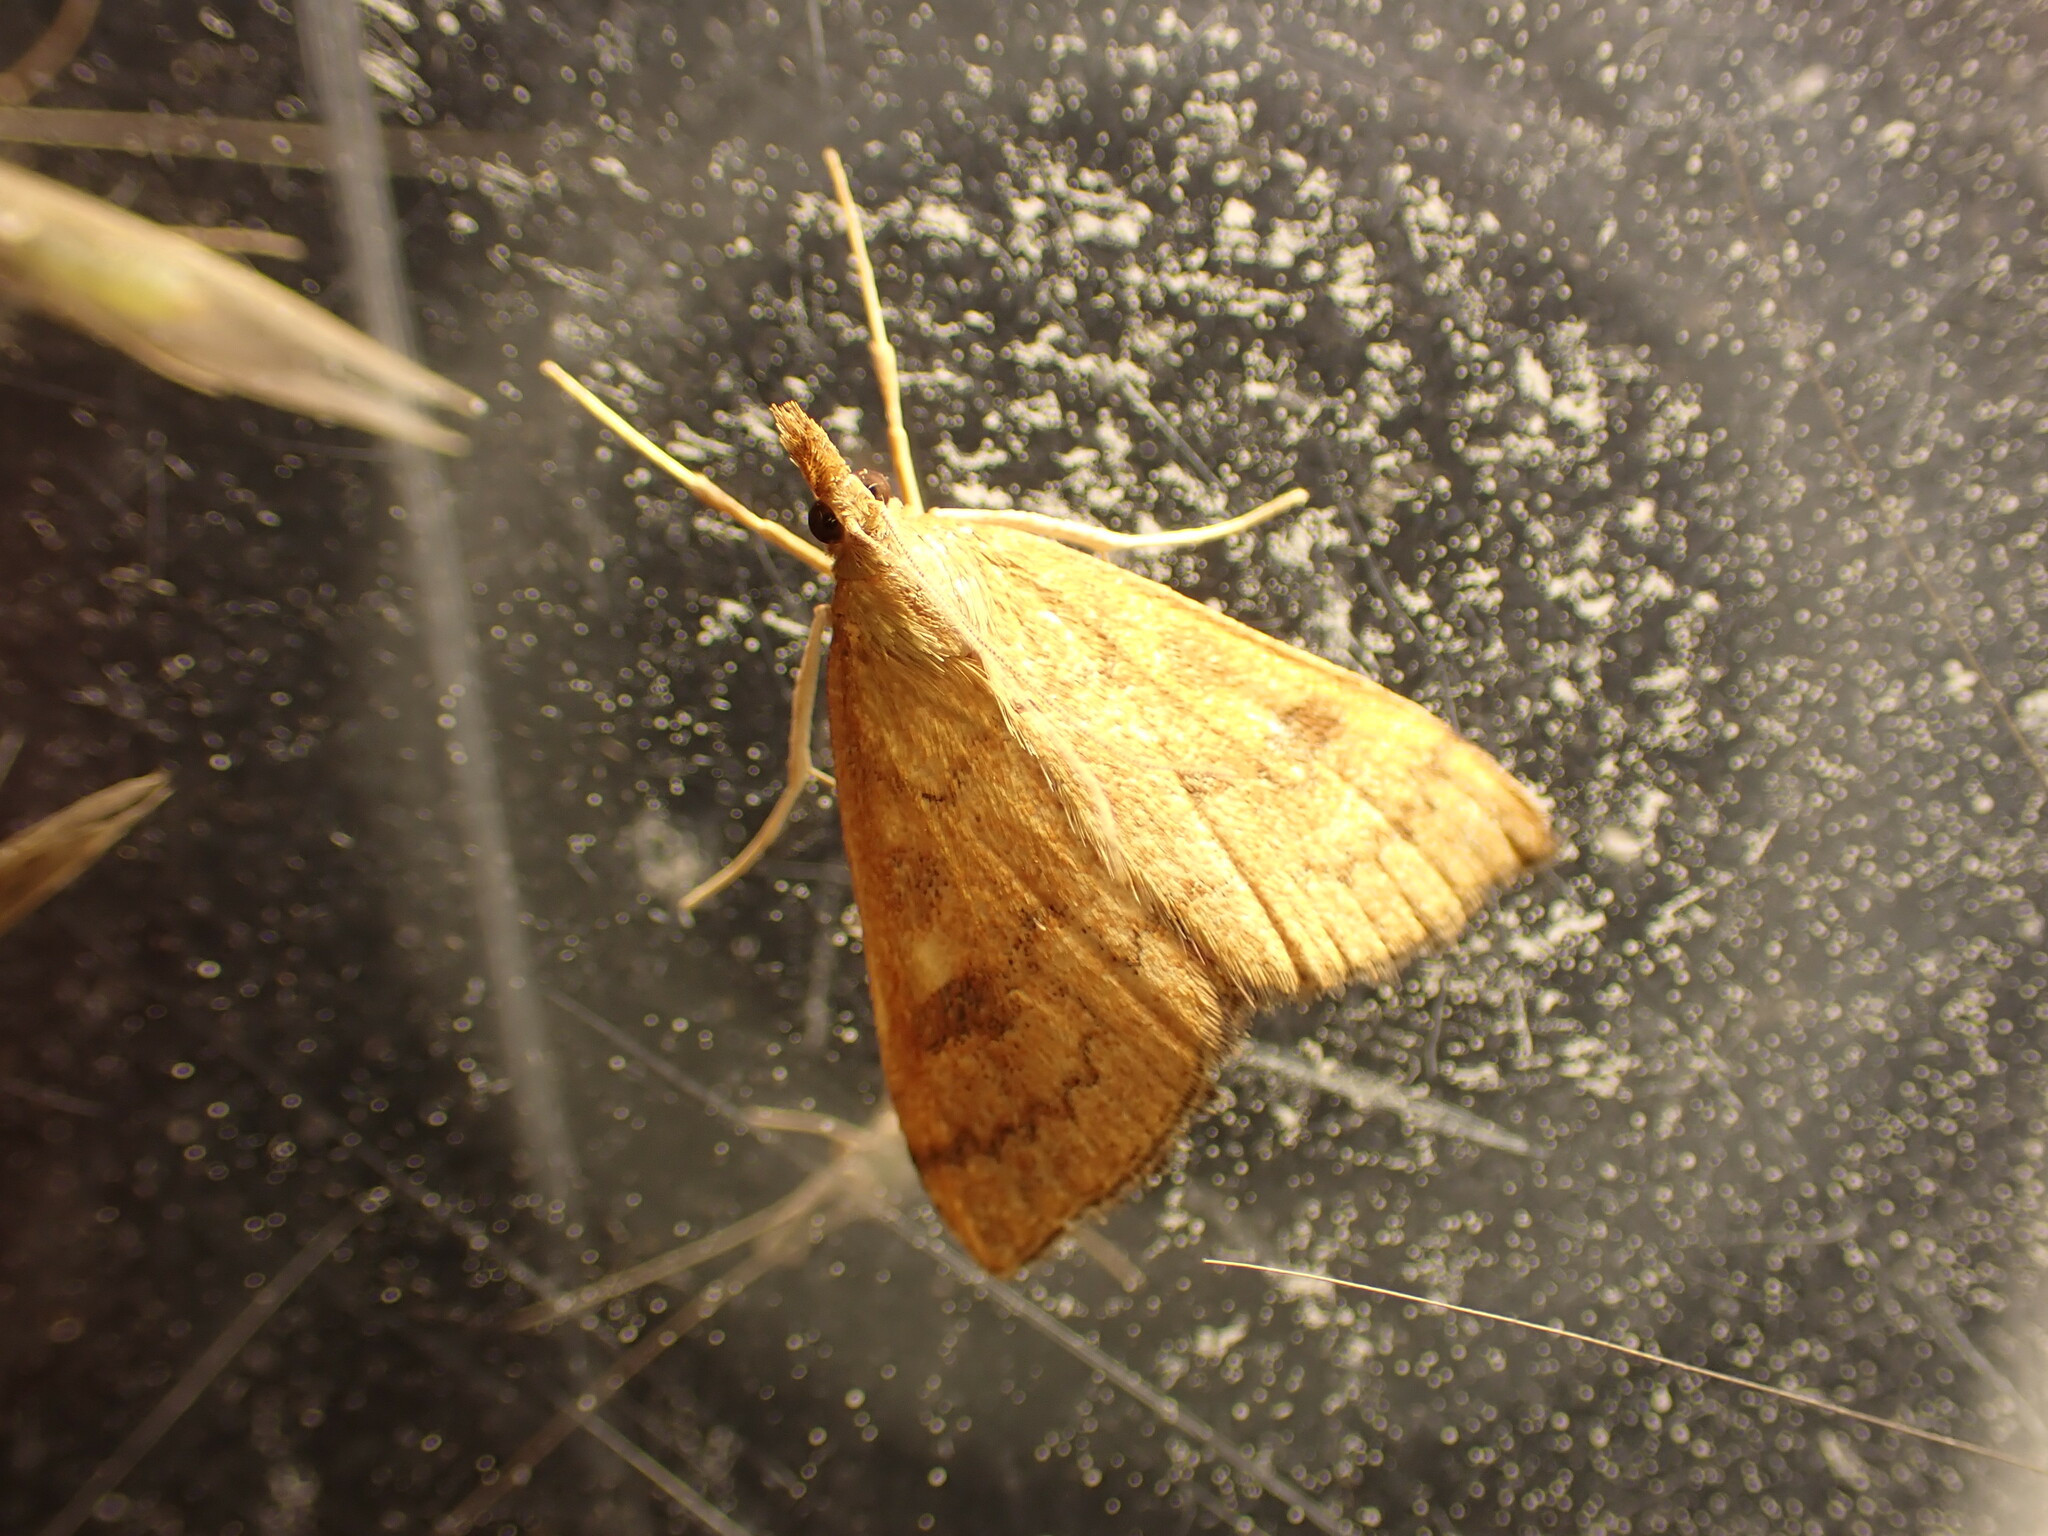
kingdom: Animalia
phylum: Arthropoda
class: Insecta
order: Lepidoptera
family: Crambidae
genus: Udea
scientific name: Udea Mnesictena flavidalis
